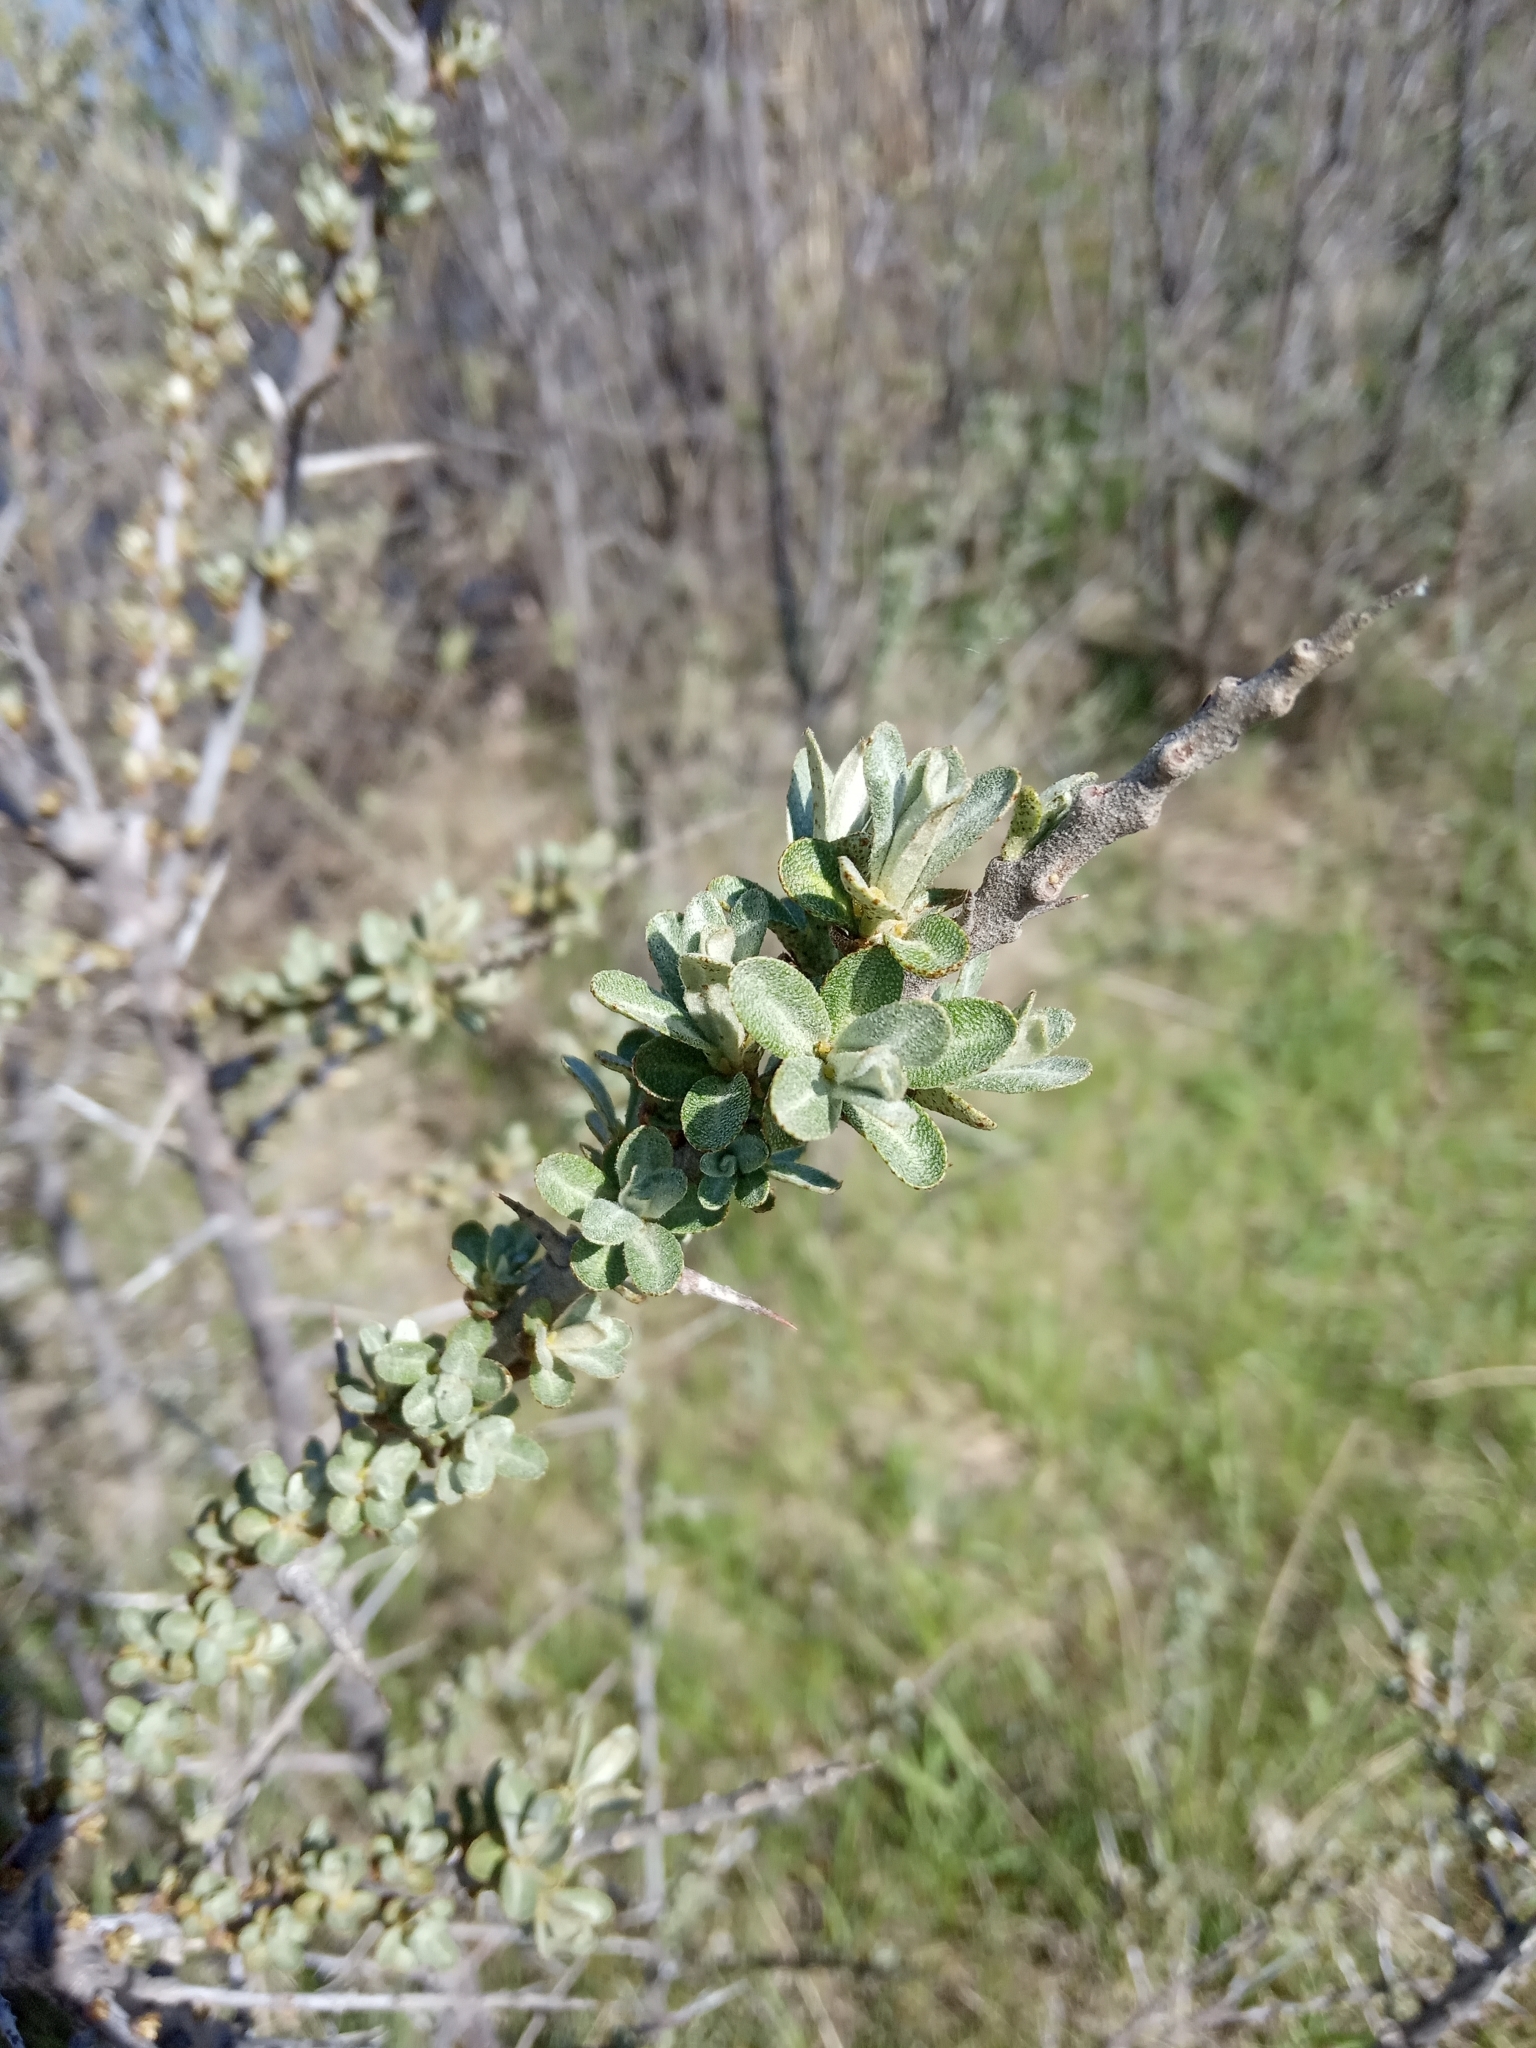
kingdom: Plantae
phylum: Tracheophyta
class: Magnoliopsida
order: Rosales
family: Elaeagnaceae
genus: Hippophae
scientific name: Hippophae rhamnoides
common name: Sea-buckthorn
